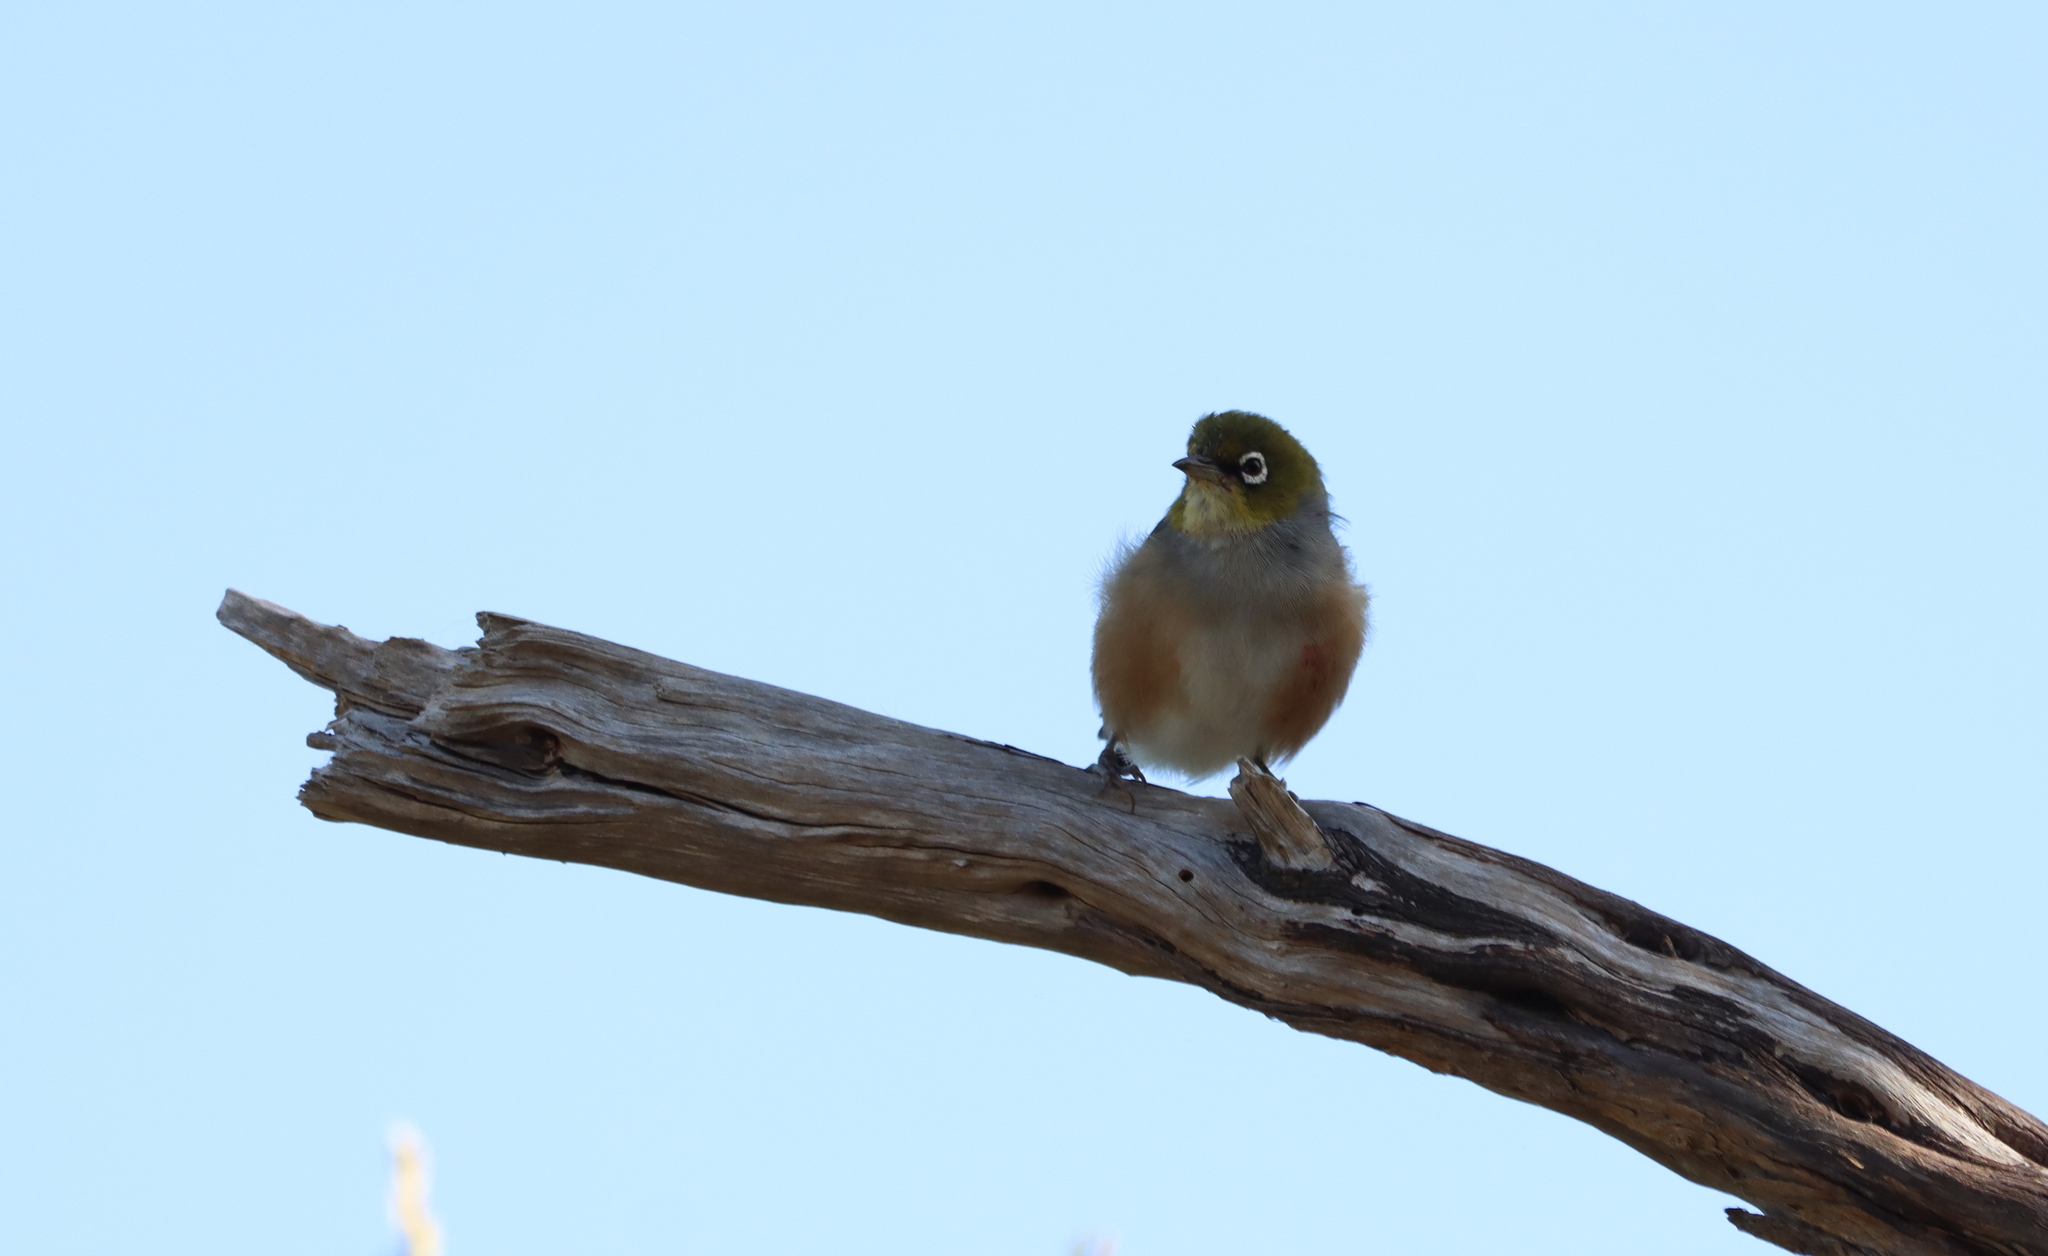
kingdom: Animalia
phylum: Chordata
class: Aves
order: Passeriformes
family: Zosteropidae
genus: Zosterops
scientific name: Zosterops lateralis
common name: Silvereye
